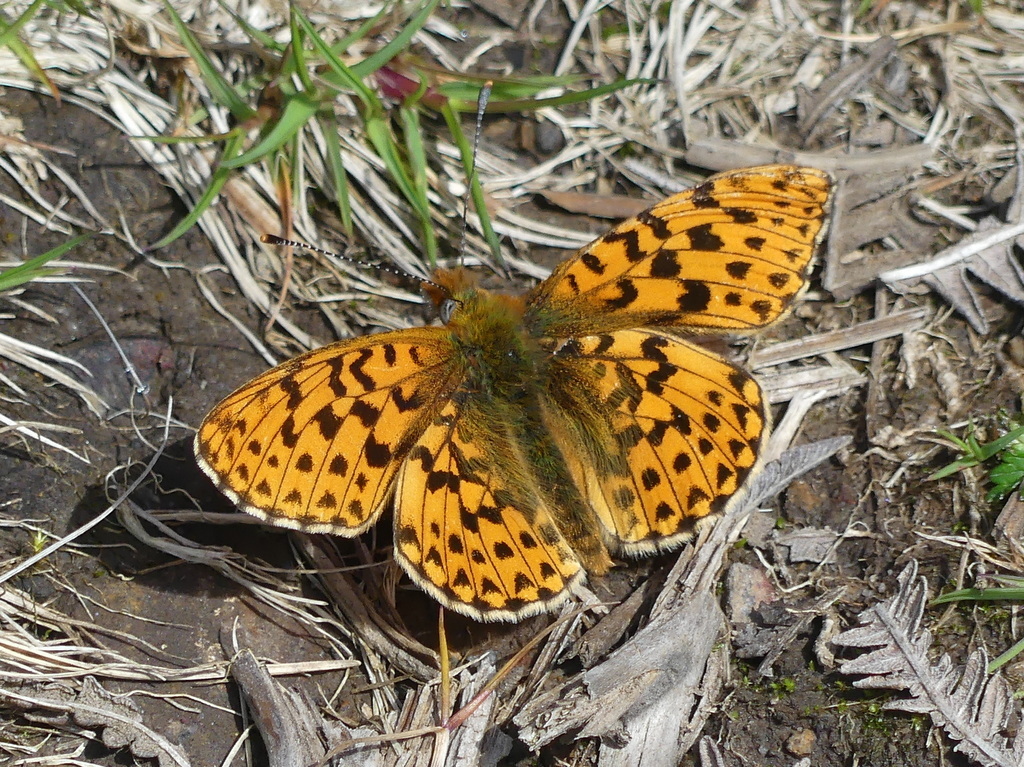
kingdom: Animalia
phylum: Arthropoda
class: Insecta
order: Lepidoptera
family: Nymphalidae
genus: Clossiana
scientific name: Clossiana euphrosyne
